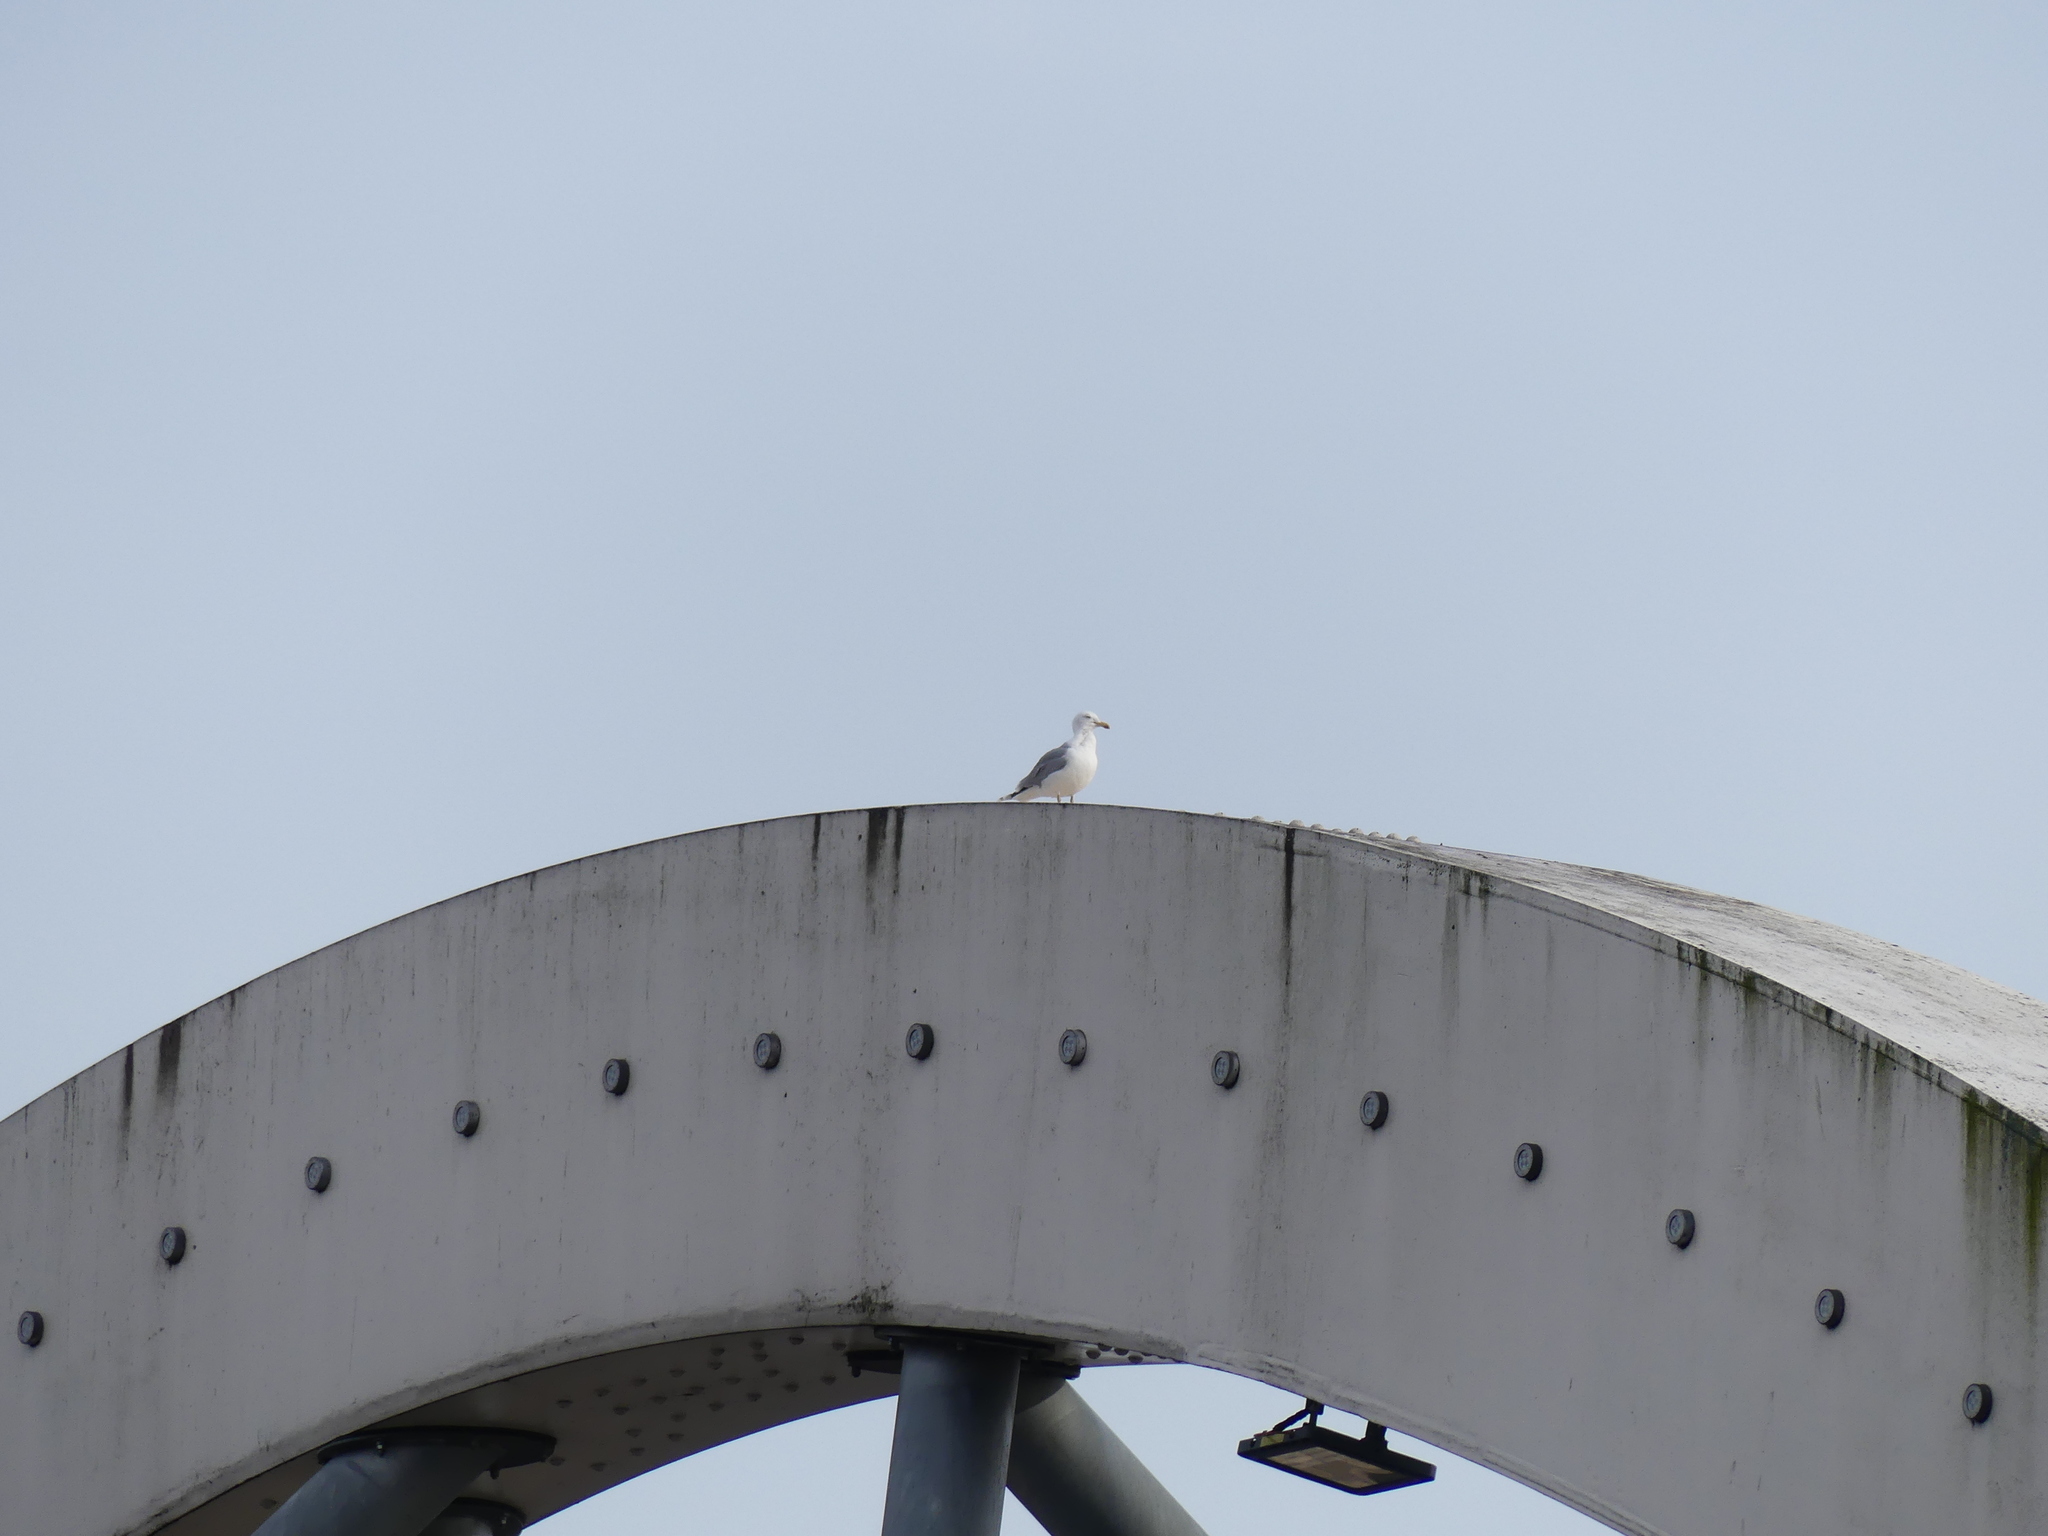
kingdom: Animalia
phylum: Chordata
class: Aves
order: Charadriiformes
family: Laridae
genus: Larus
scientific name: Larus argentatus
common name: Herring gull
